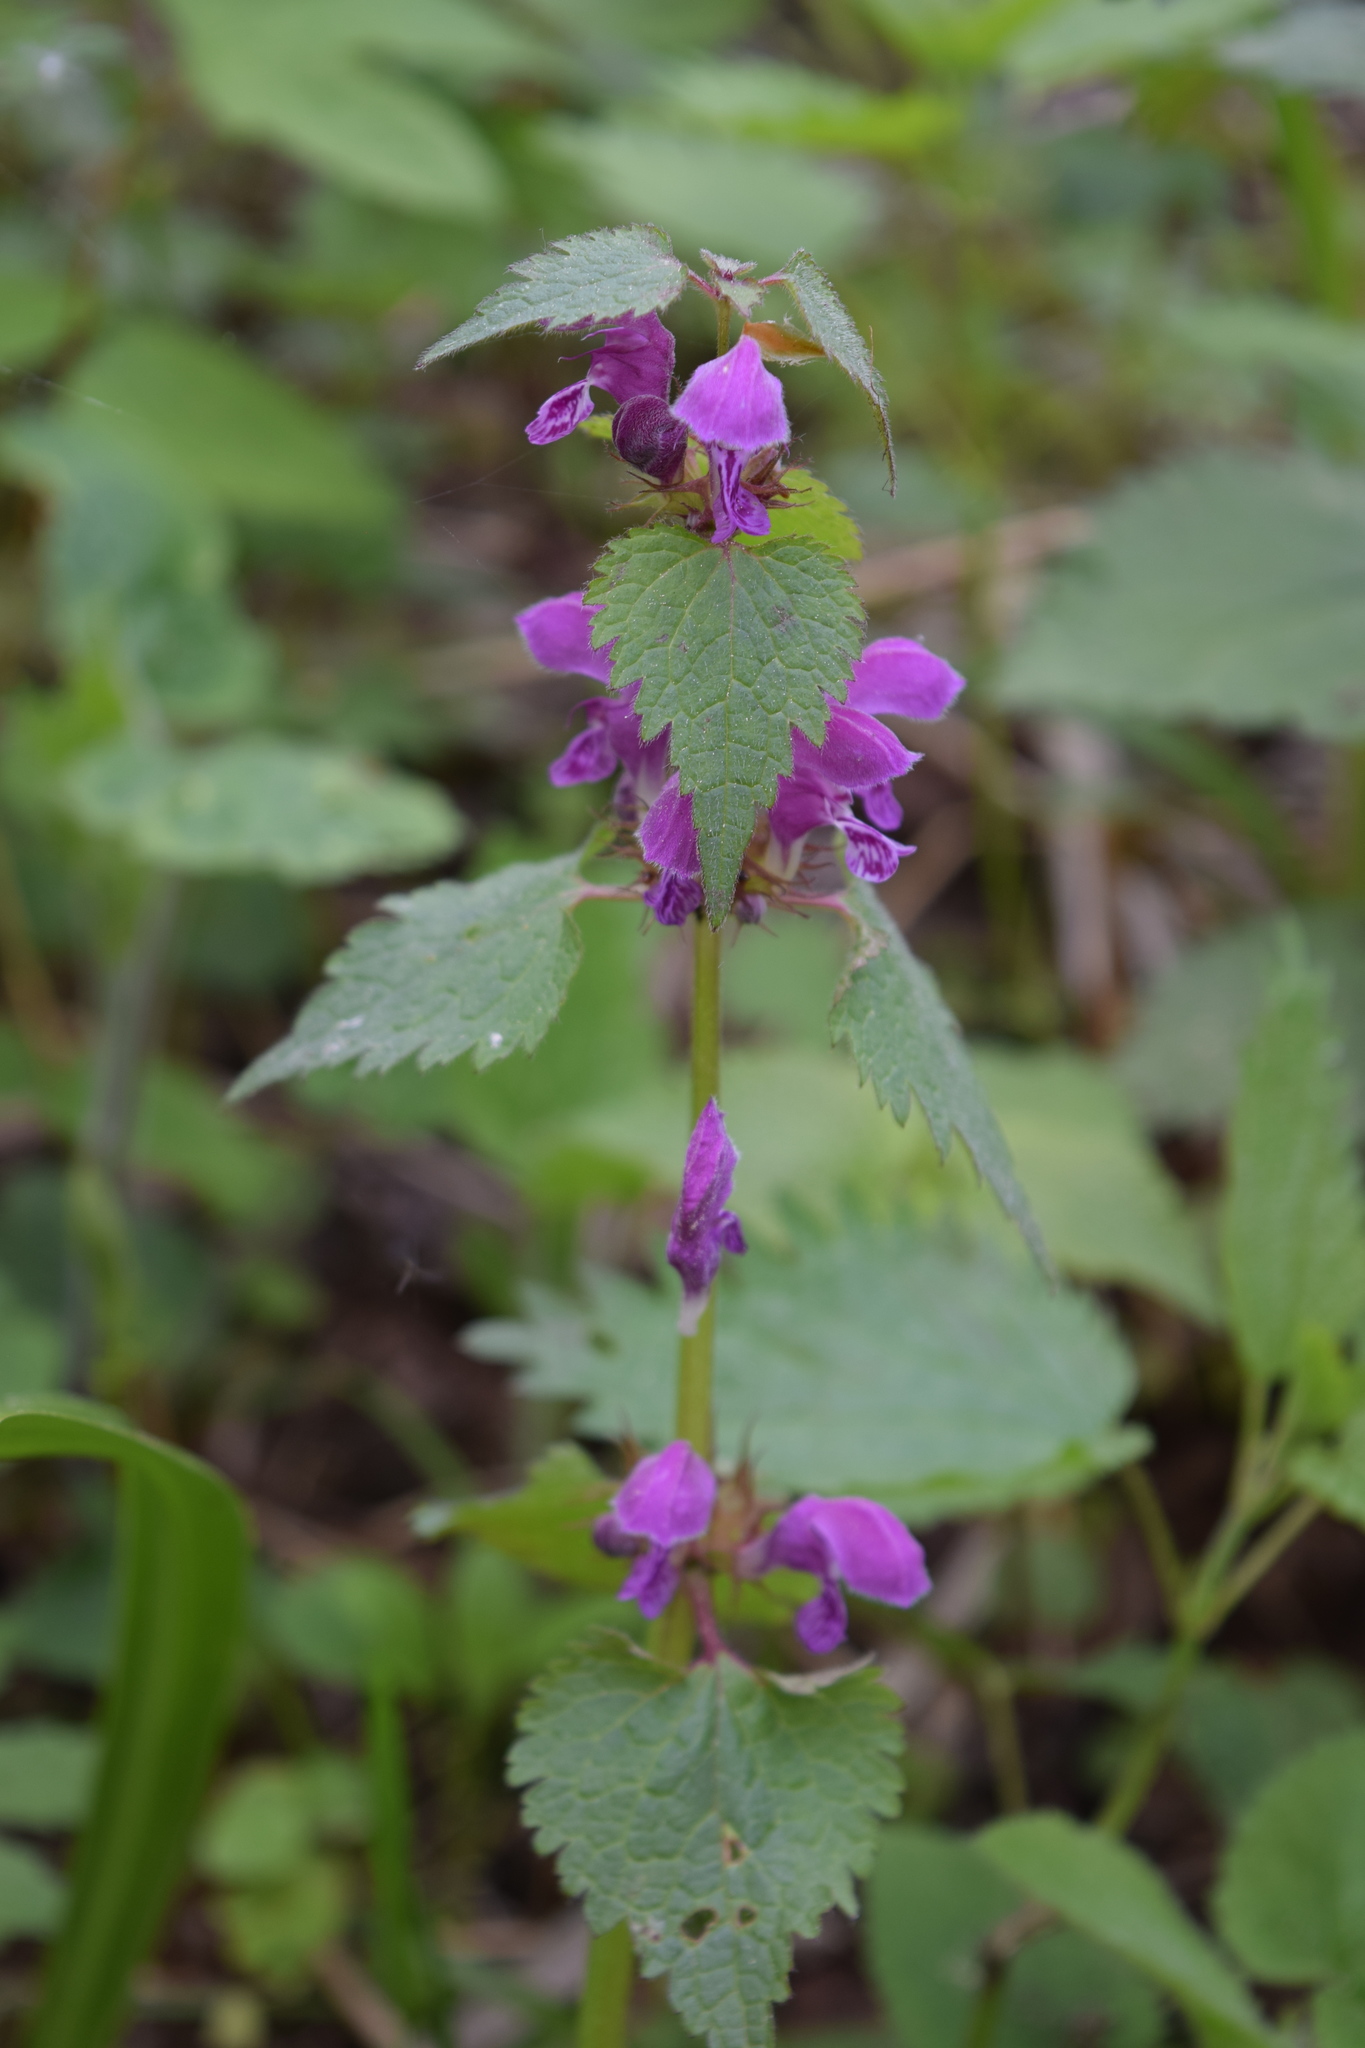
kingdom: Plantae
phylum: Tracheophyta
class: Magnoliopsida
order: Lamiales
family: Lamiaceae
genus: Lamium
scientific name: Lamium maculatum
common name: Spotted dead-nettle
